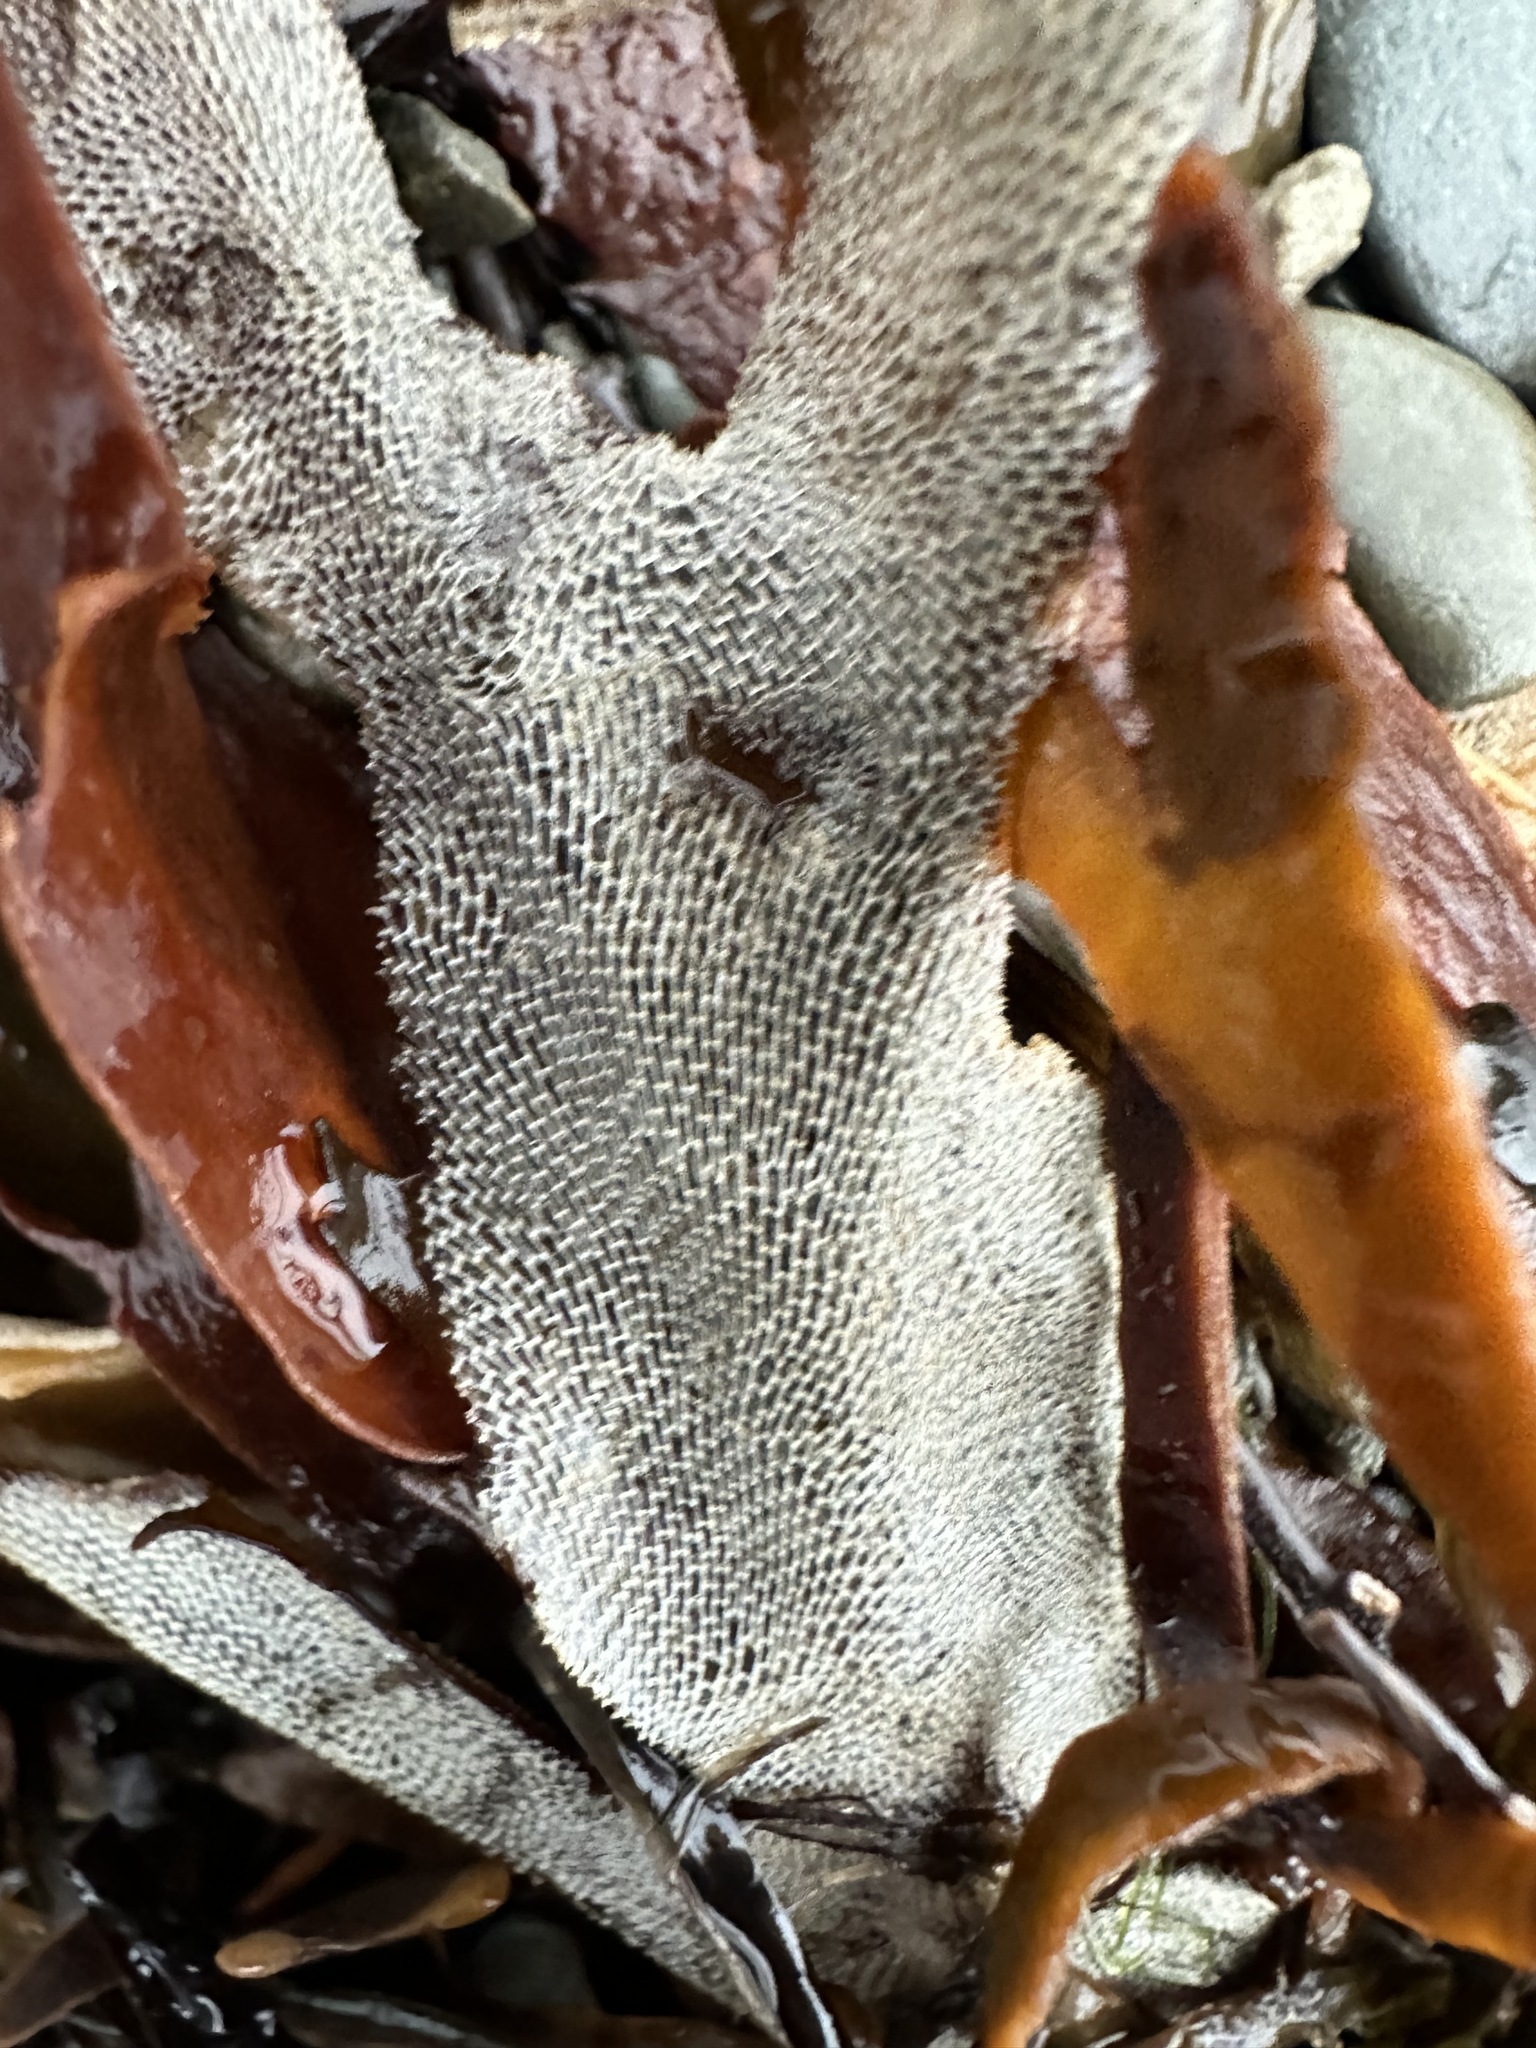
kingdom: Animalia
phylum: Bryozoa
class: Gymnolaemata
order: Cheilostomatida
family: Membraniporidae
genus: Membranipora
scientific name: Membranipora membranacea
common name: Sea mat
